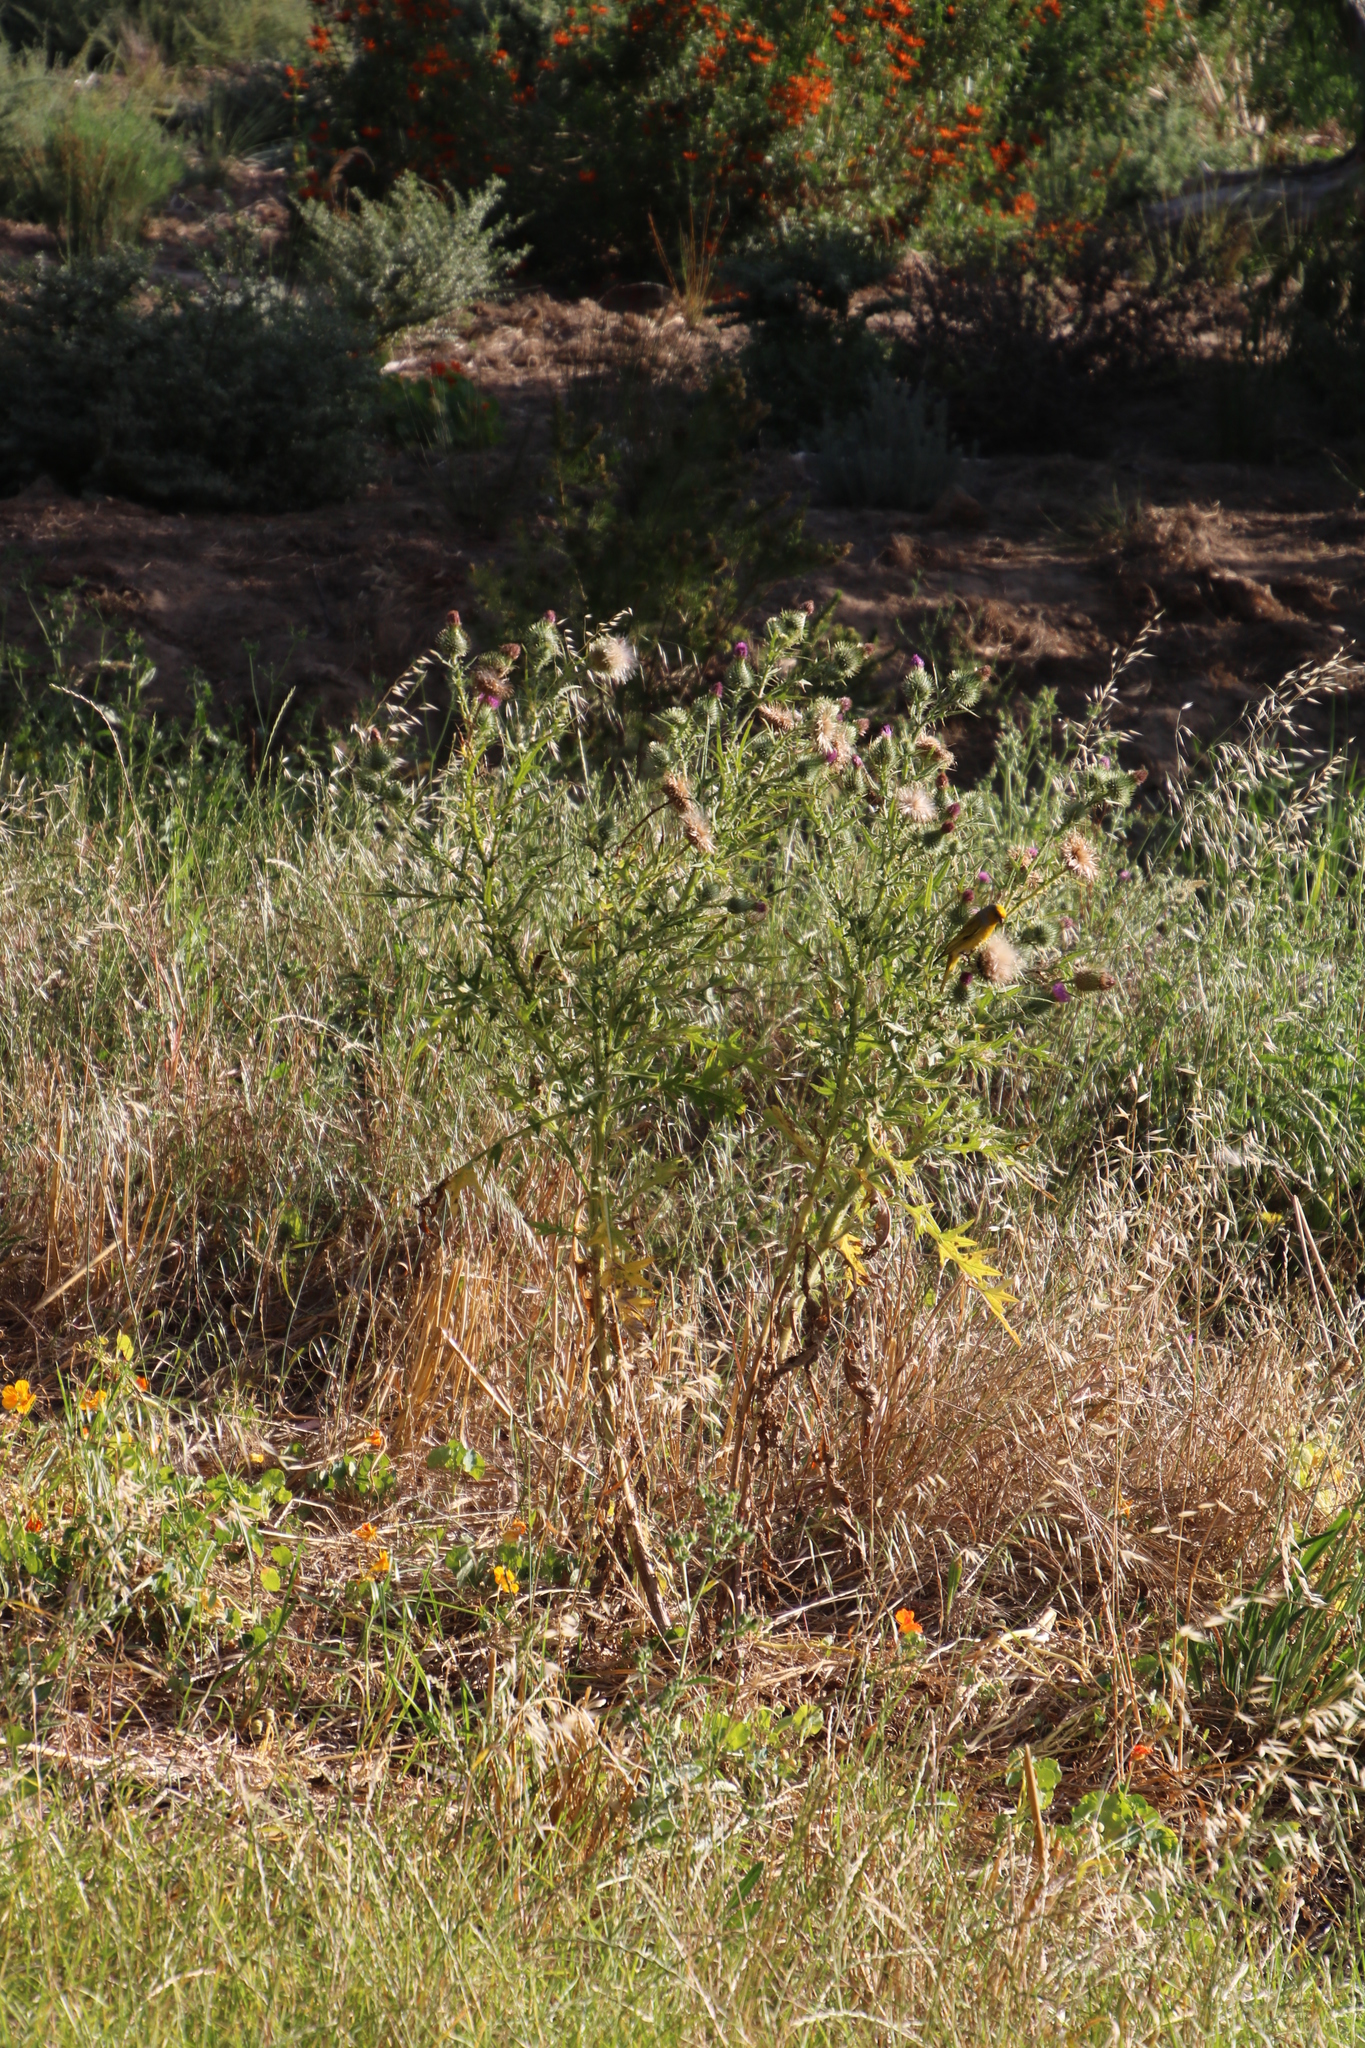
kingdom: Plantae
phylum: Tracheophyta
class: Magnoliopsida
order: Asterales
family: Asteraceae
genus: Cirsium
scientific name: Cirsium vulgare
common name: Bull thistle
